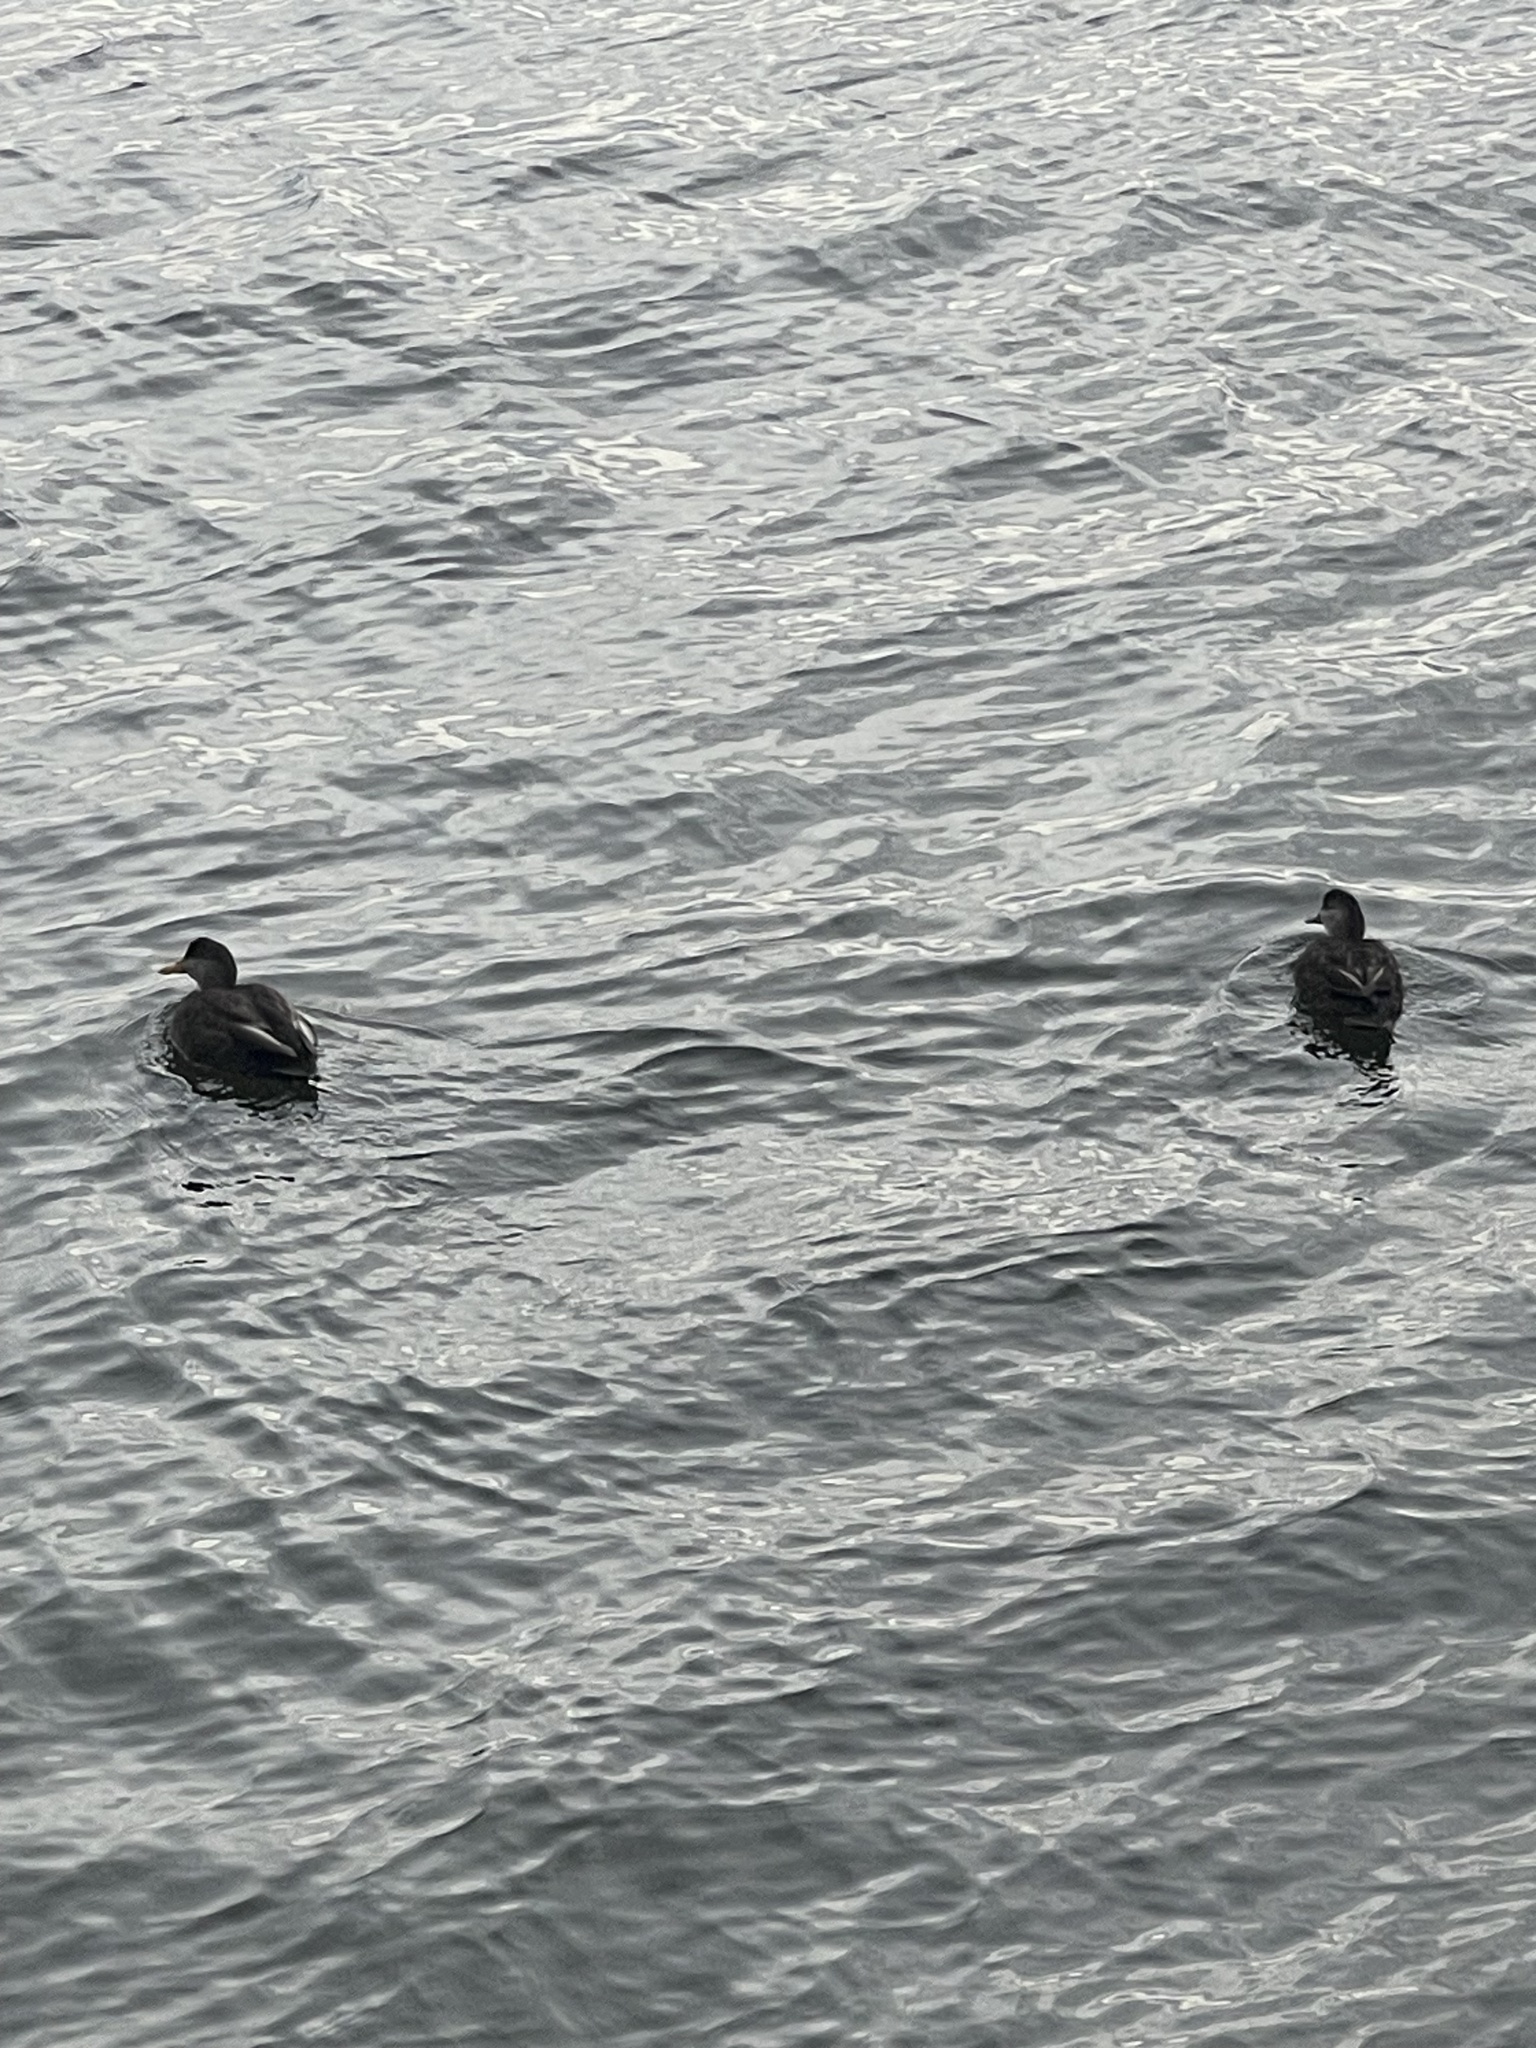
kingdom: Animalia
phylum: Chordata
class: Aves
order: Anseriformes
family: Anatidae
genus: Anas
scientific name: Anas rubripes
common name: American black duck
